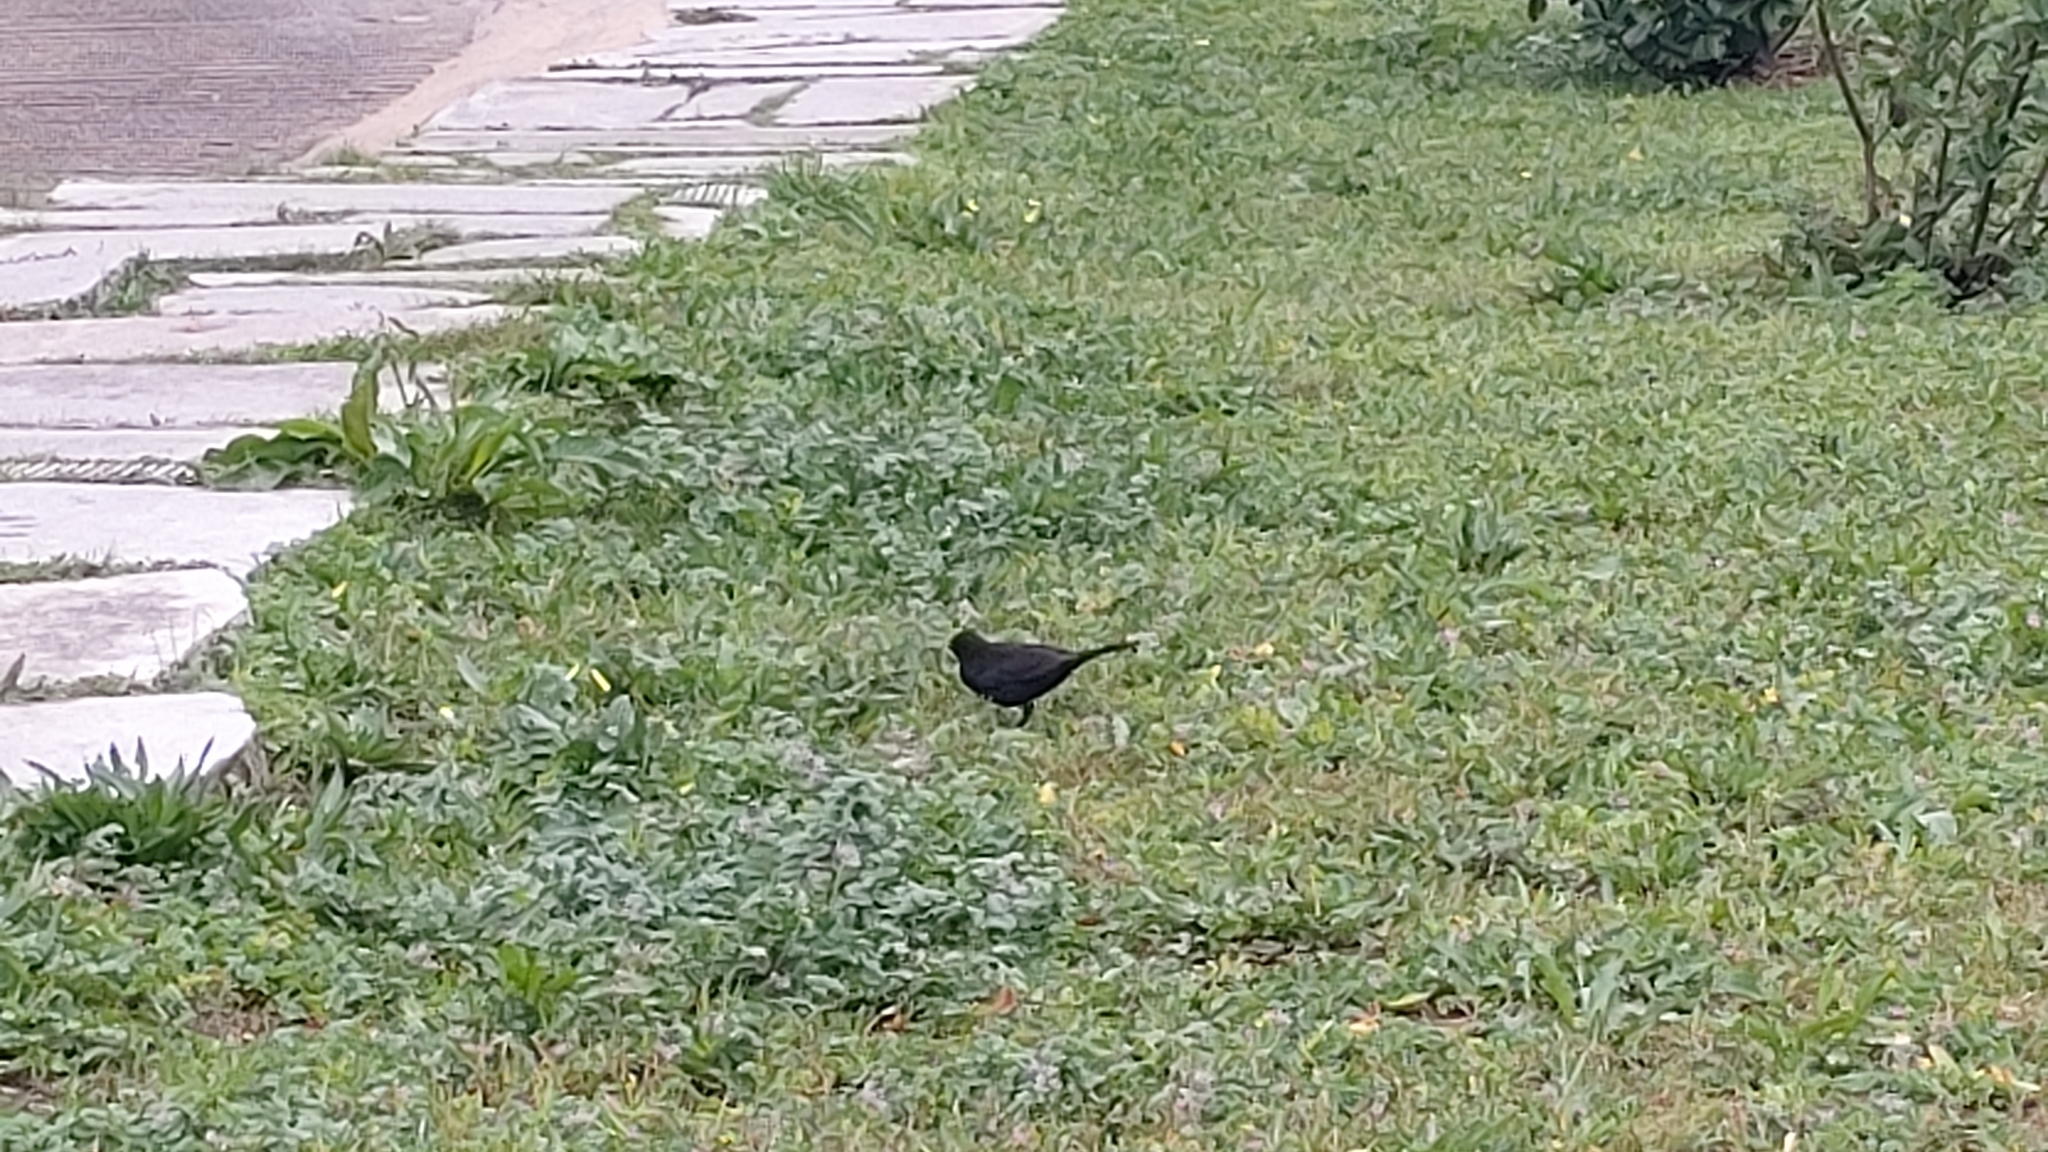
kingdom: Animalia
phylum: Chordata
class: Aves
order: Passeriformes
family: Turdidae
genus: Turdus
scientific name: Turdus merula
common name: Common blackbird
